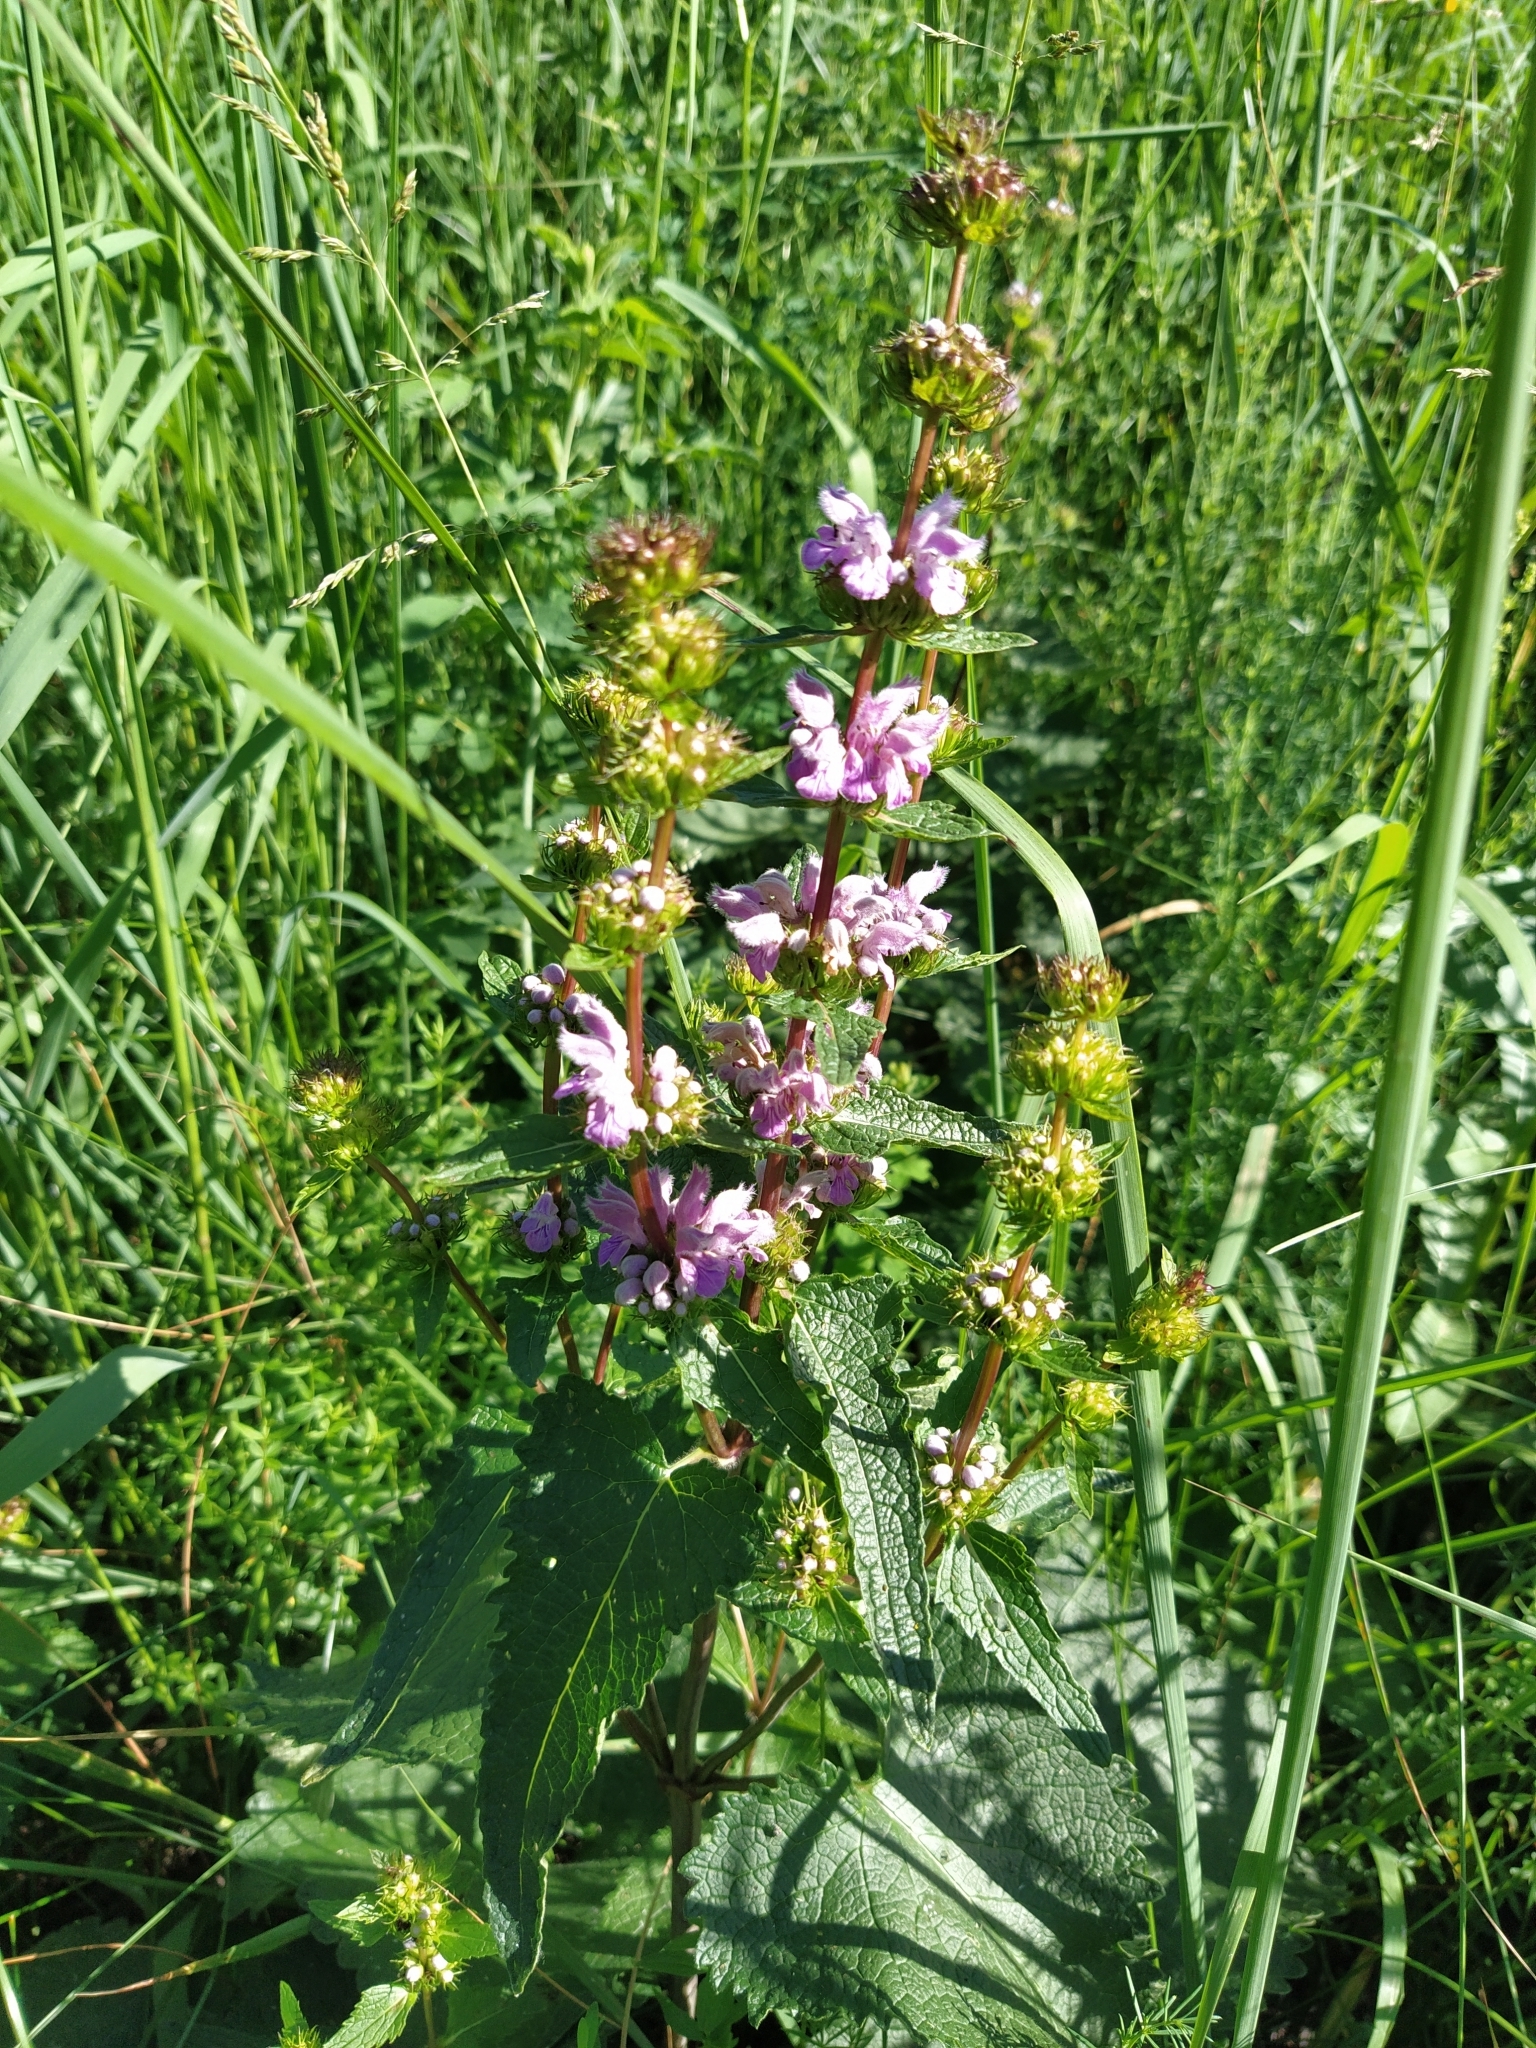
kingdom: Plantae
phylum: Tracheophyta
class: Magnoliopsida
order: Lamiales
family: Lamiaceae
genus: Phlomoides
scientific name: Phlomoides tuberosa
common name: Tuberous jerusalem sage
